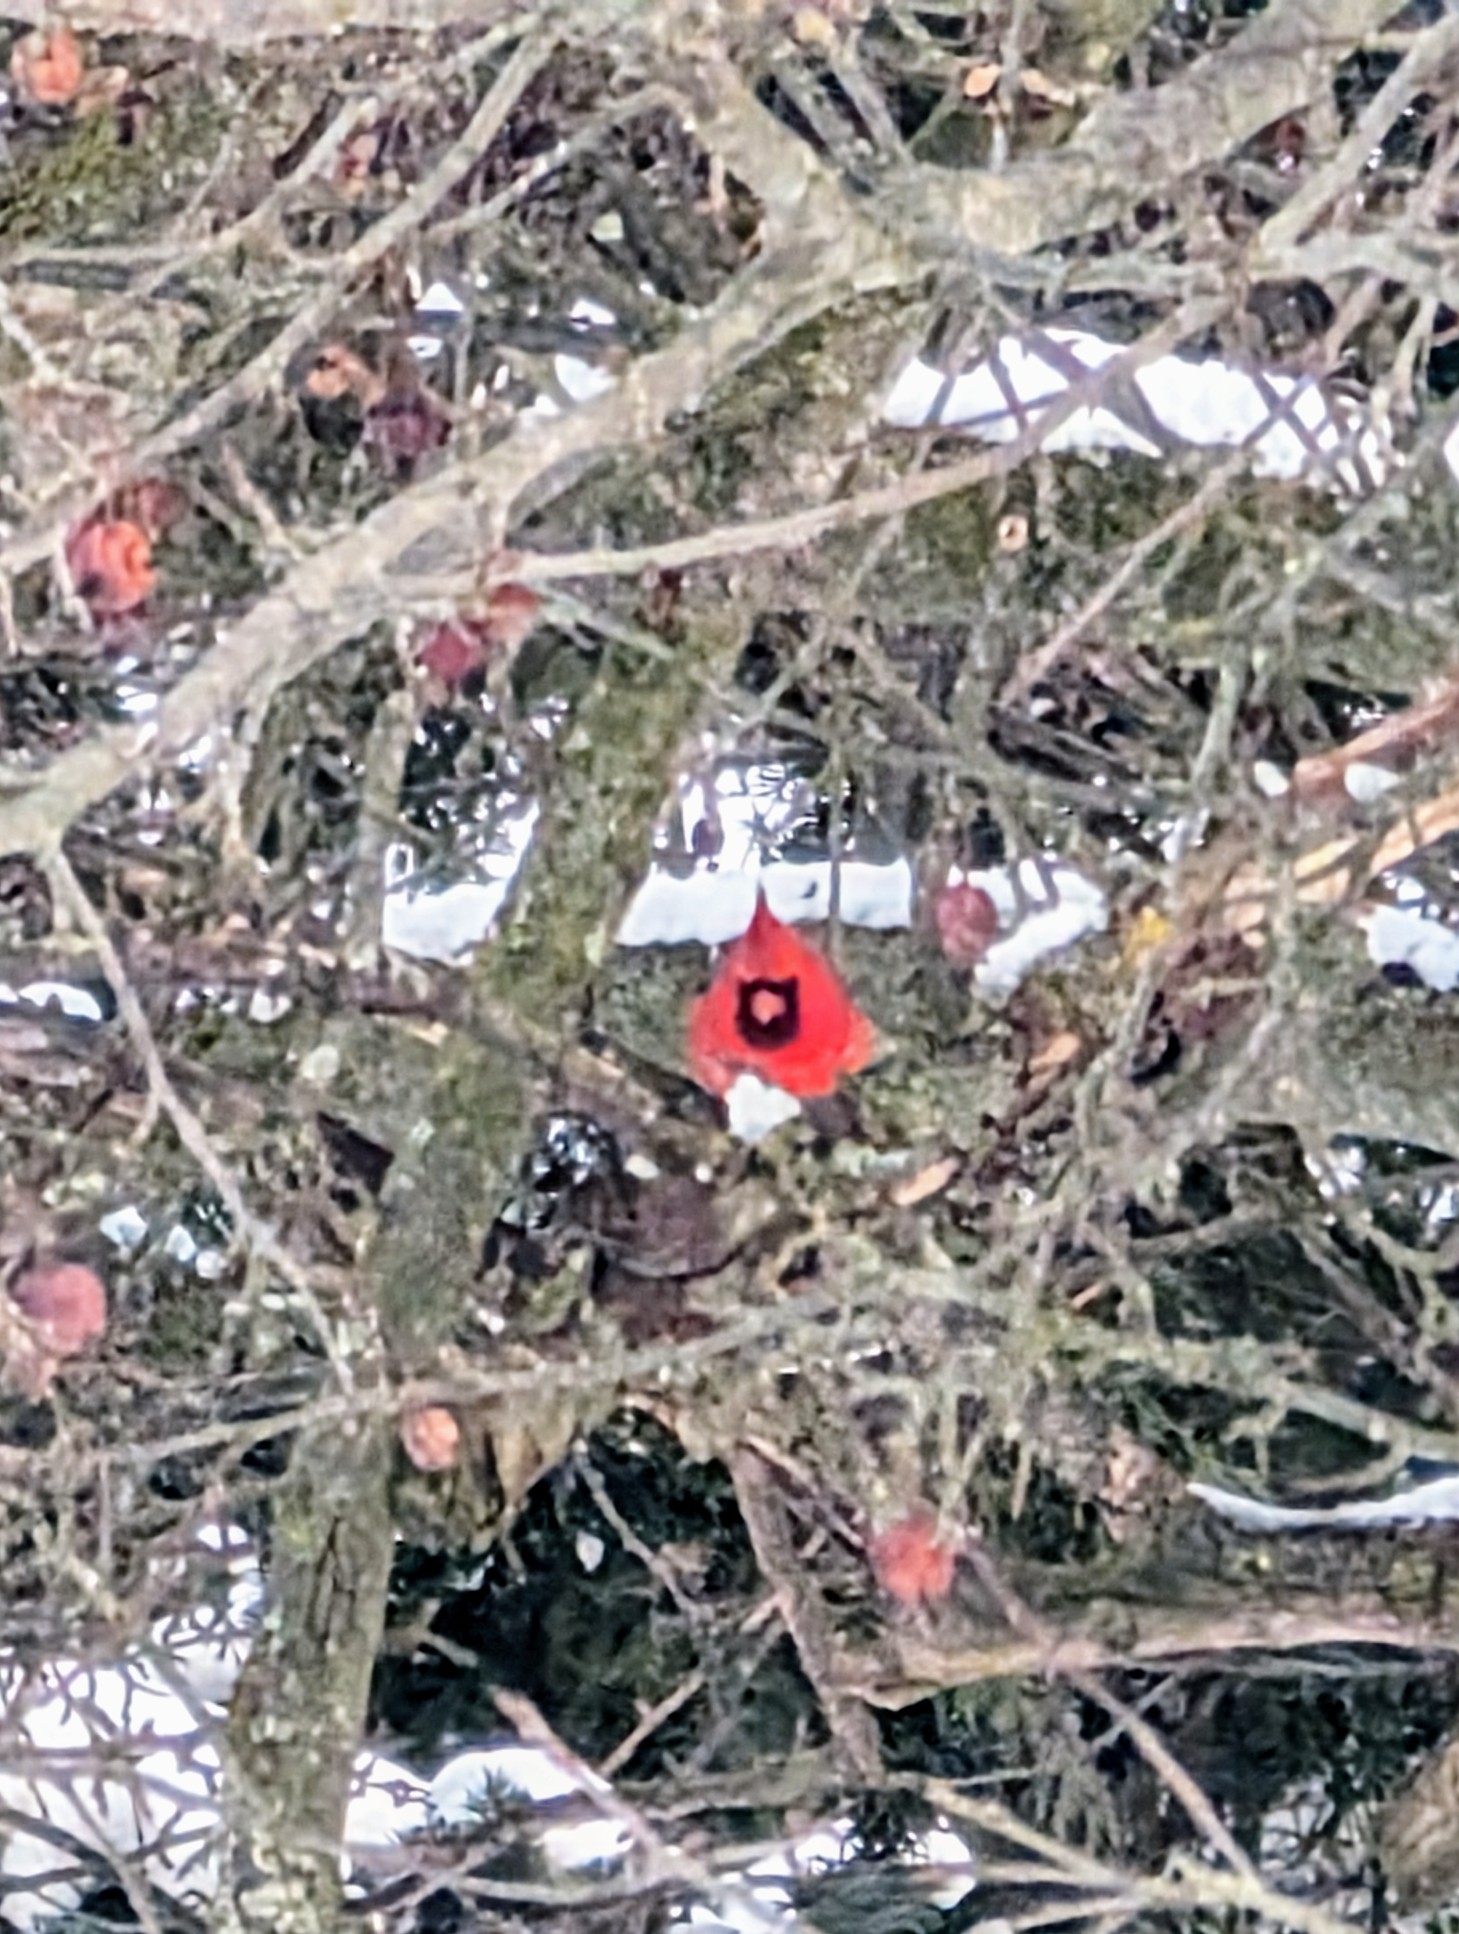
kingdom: Animalia
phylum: Chordata
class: Aves
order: Passeriformes
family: Cardinalidae
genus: Cardinalis
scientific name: Cardinalis cardinalis
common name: Northern cardinal
